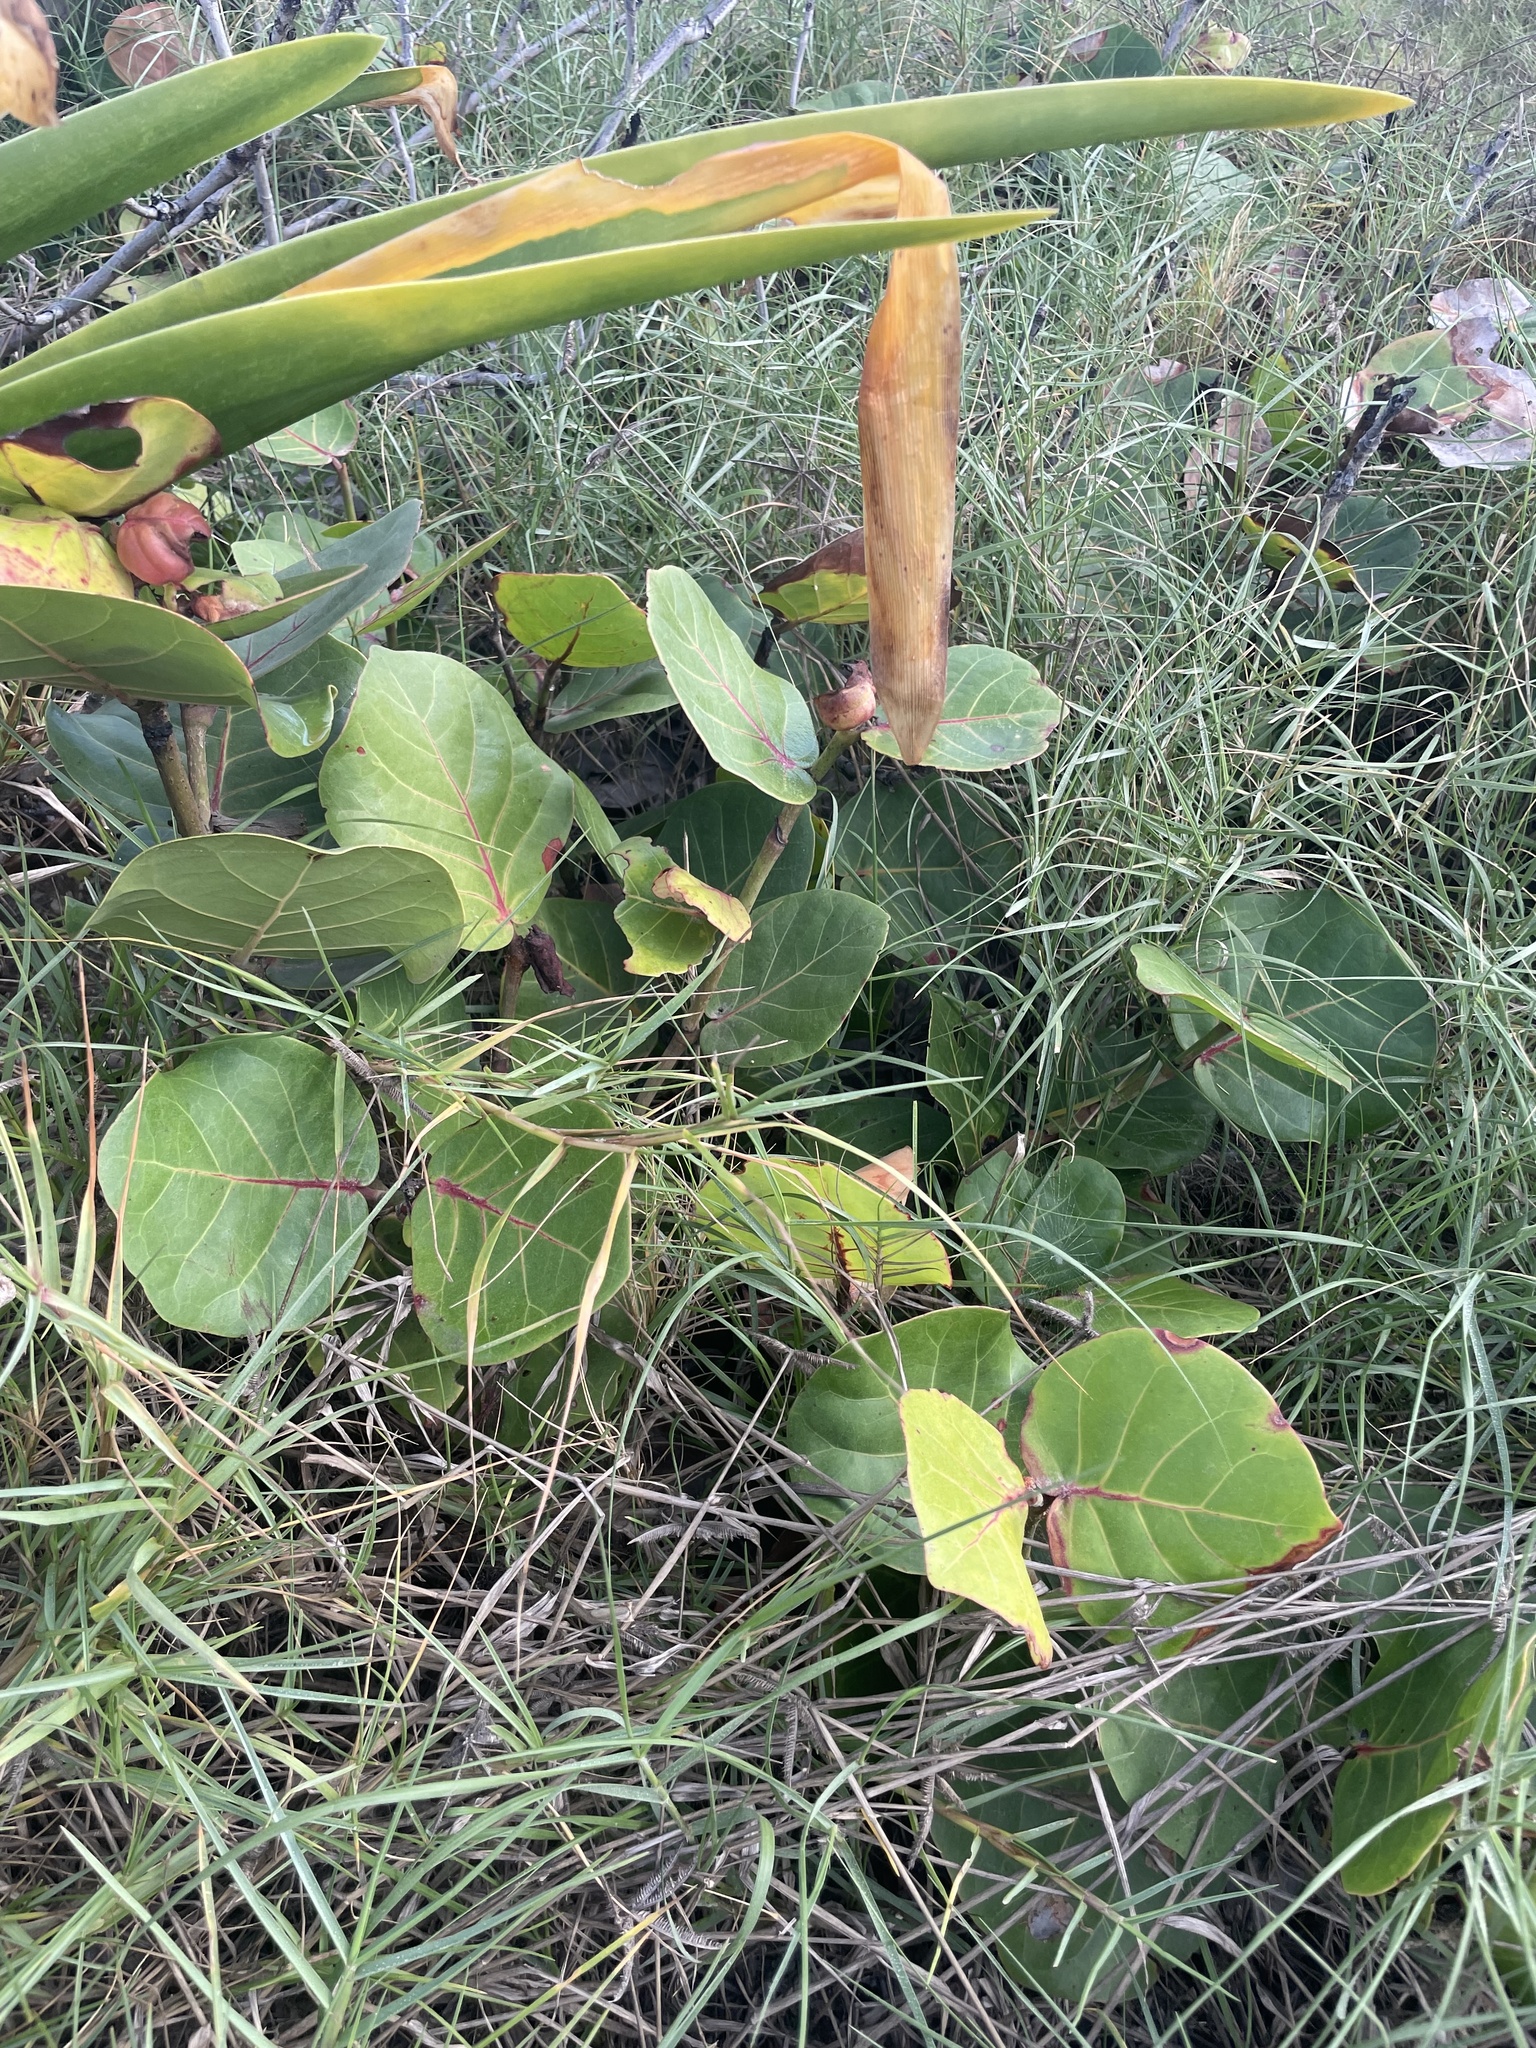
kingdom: Plantae
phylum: Tracheophyta
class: Magnoliopsida
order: Caryophyllales
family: Polygonaceae
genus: Coccoloba
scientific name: Coccoloba uvifera
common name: Seagrape
